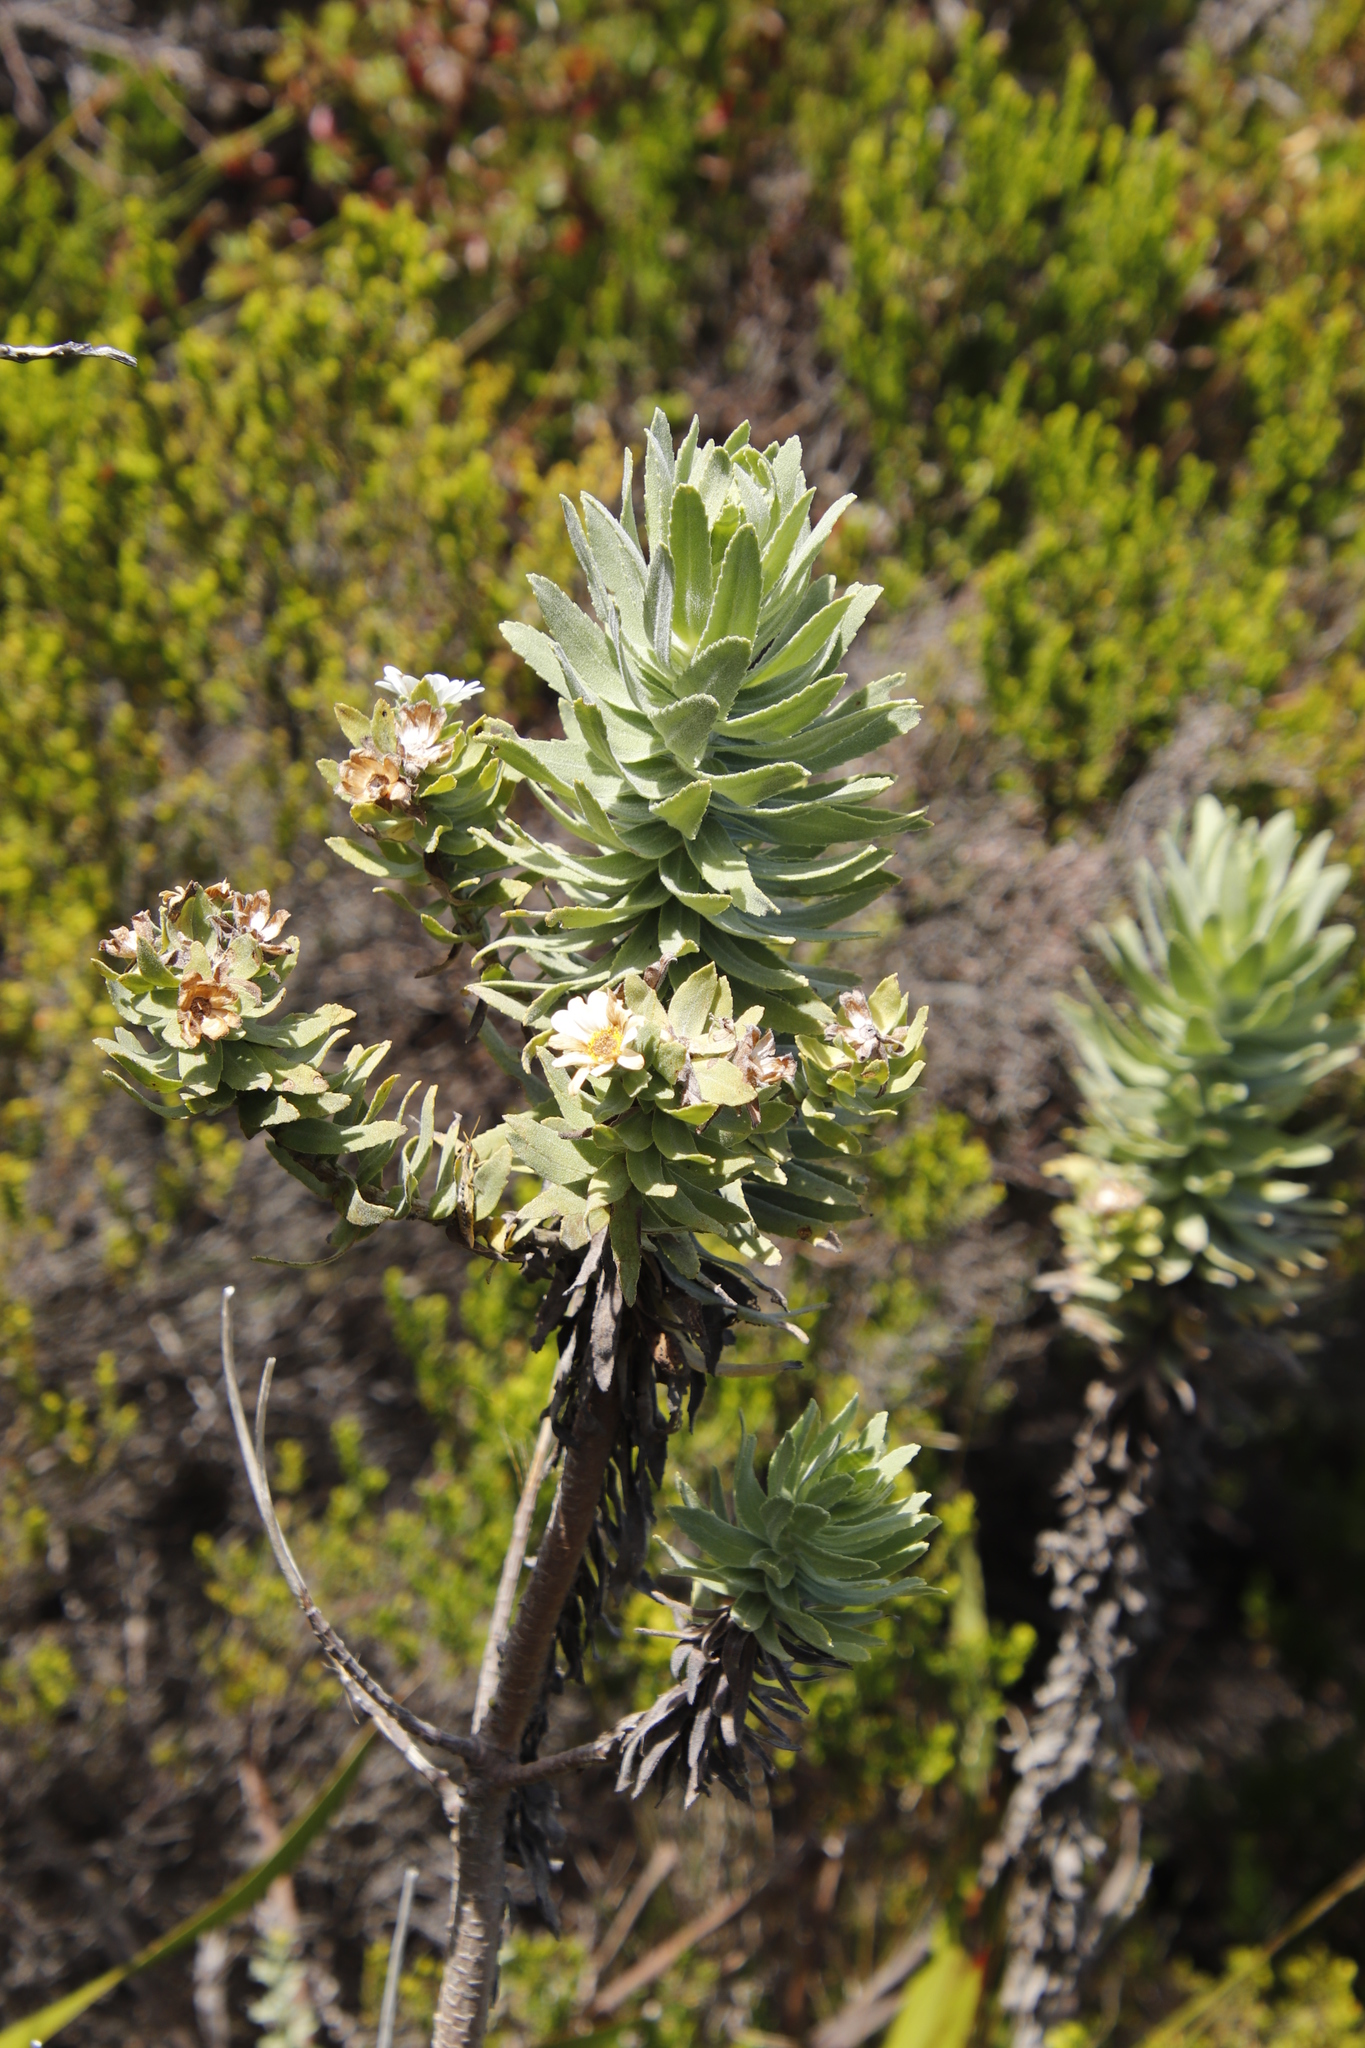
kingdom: Plantae
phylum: Tracheophyta
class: Magnoliopsida
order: Asterales
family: Asteraceae
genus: Osmitopsis
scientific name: Osmitopsis asteriscoides
